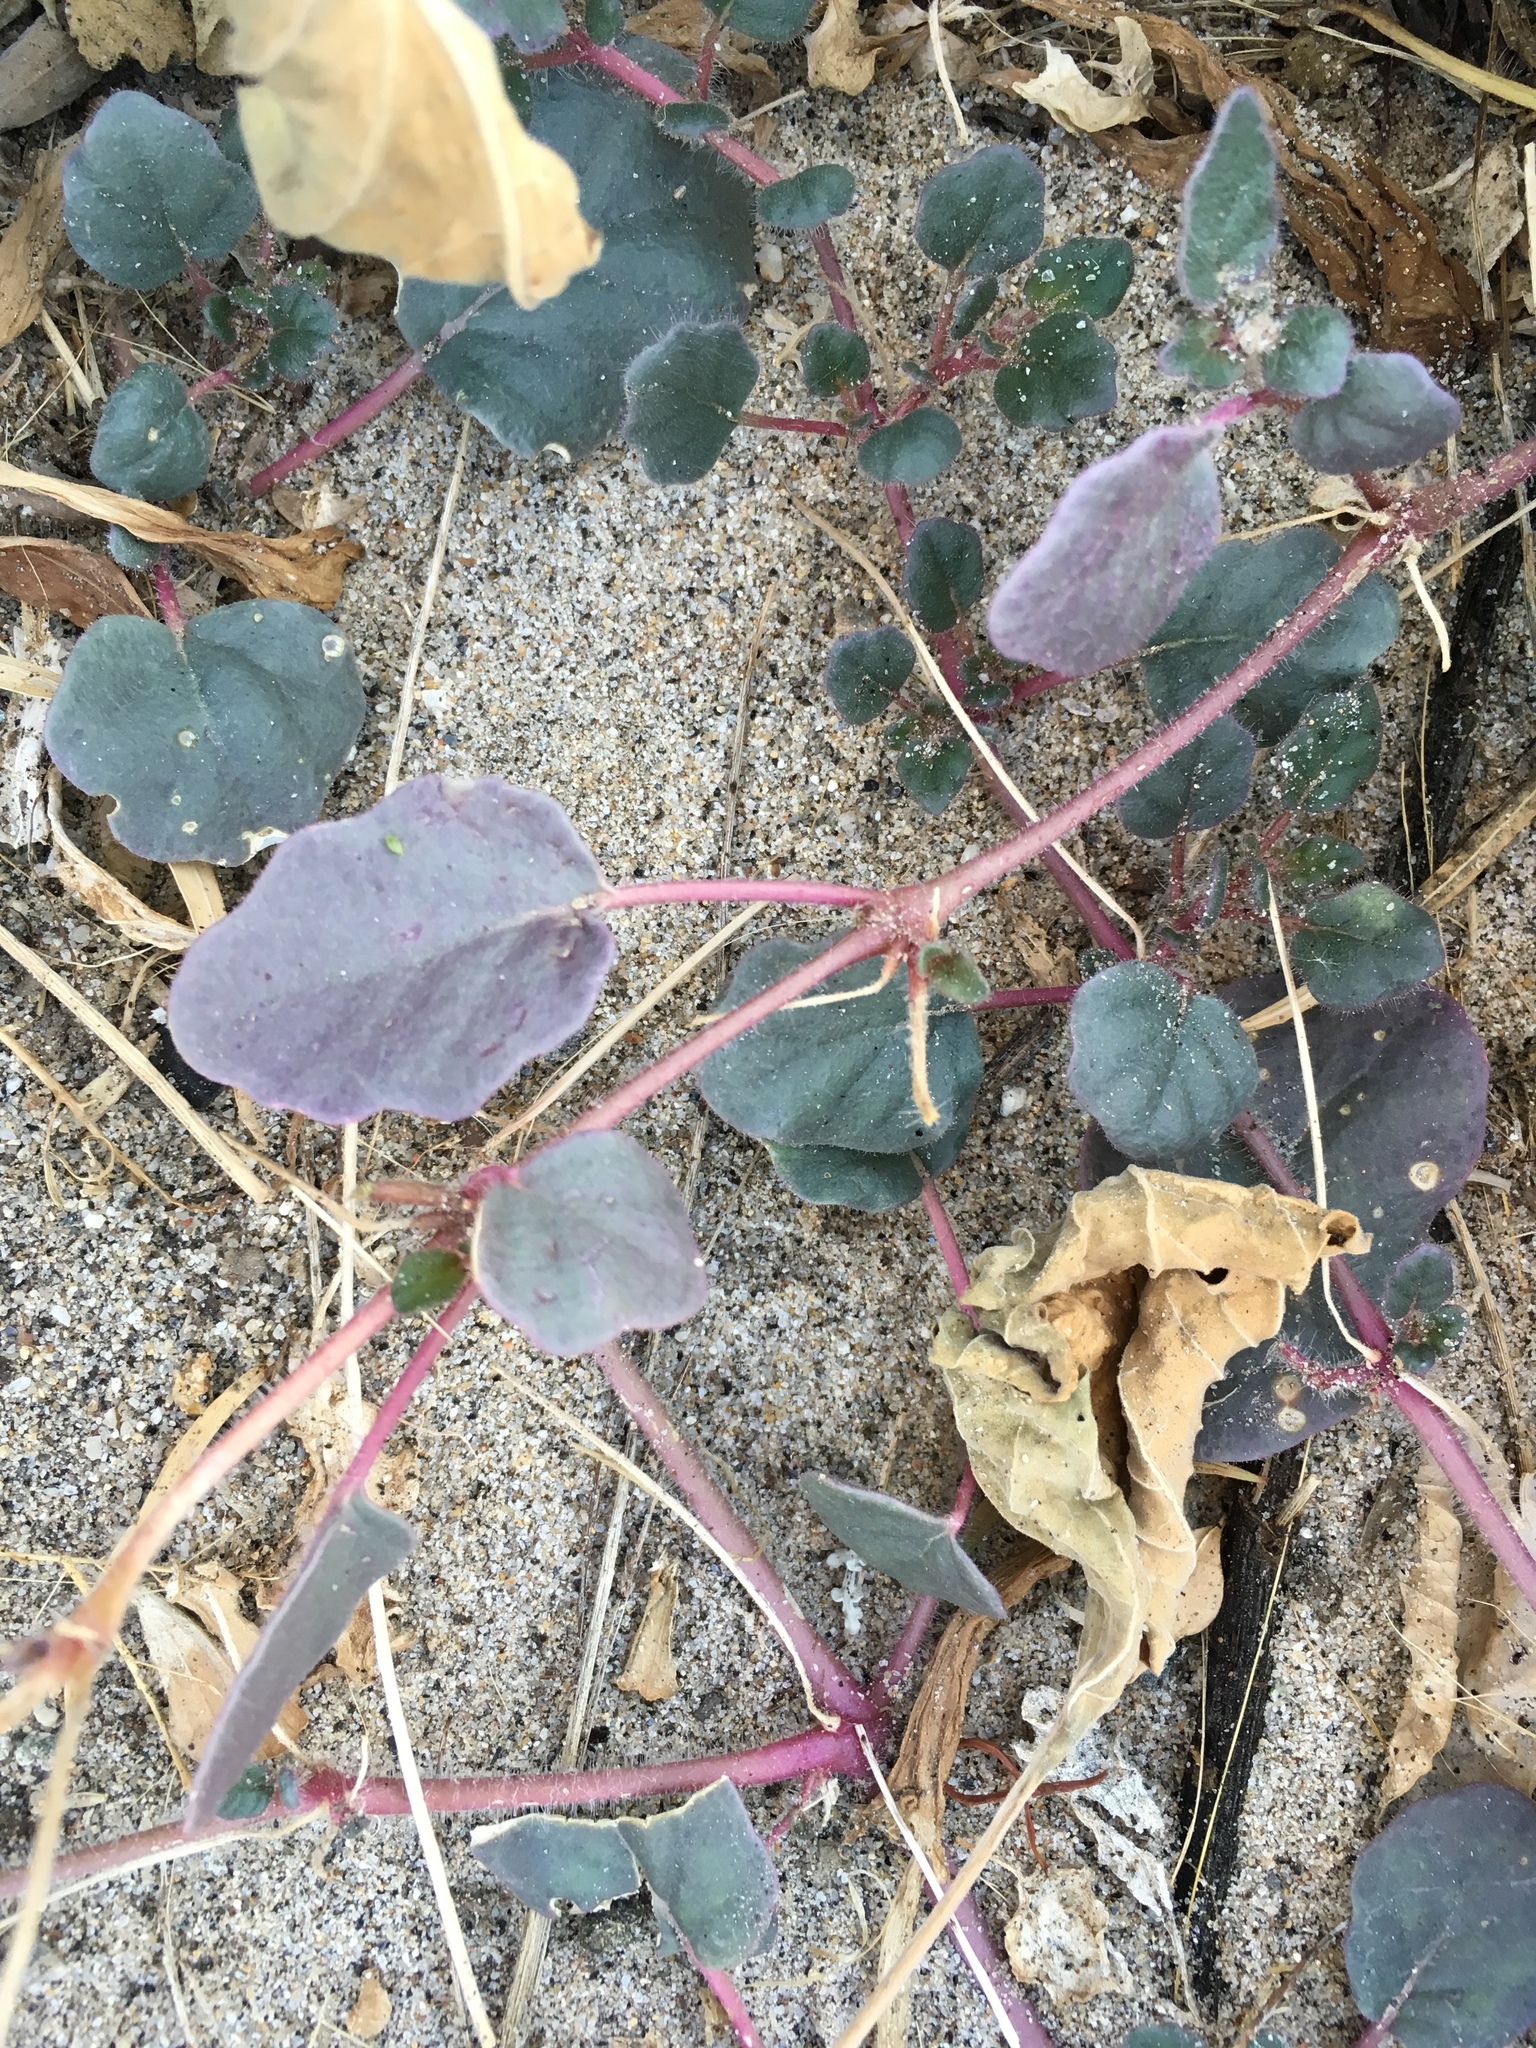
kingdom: Plantae
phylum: Tracheophyta
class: Magnoliopsida
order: Caryophyllales
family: Nyctaginaceae
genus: Abronia
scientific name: Abronia villosa
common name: Desert sand-verbena
